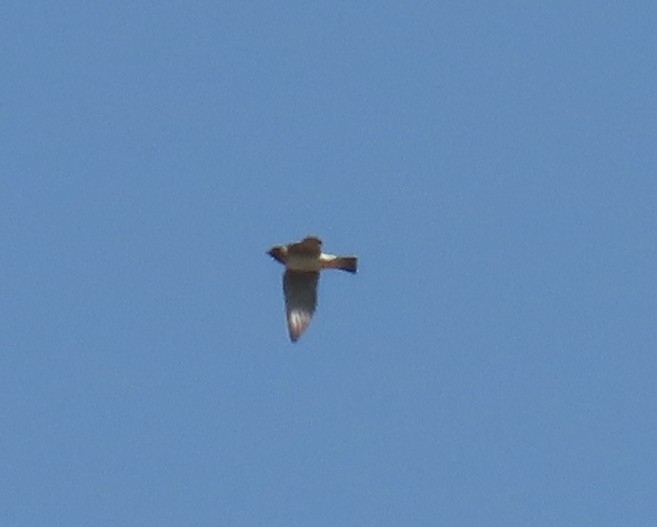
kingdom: Animalia
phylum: Chordata
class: Aves
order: Passeriformes
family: Hirundinidae
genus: Petrochelidon
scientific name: Petrochelidon pyrrhonota
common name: American cliff swallow
